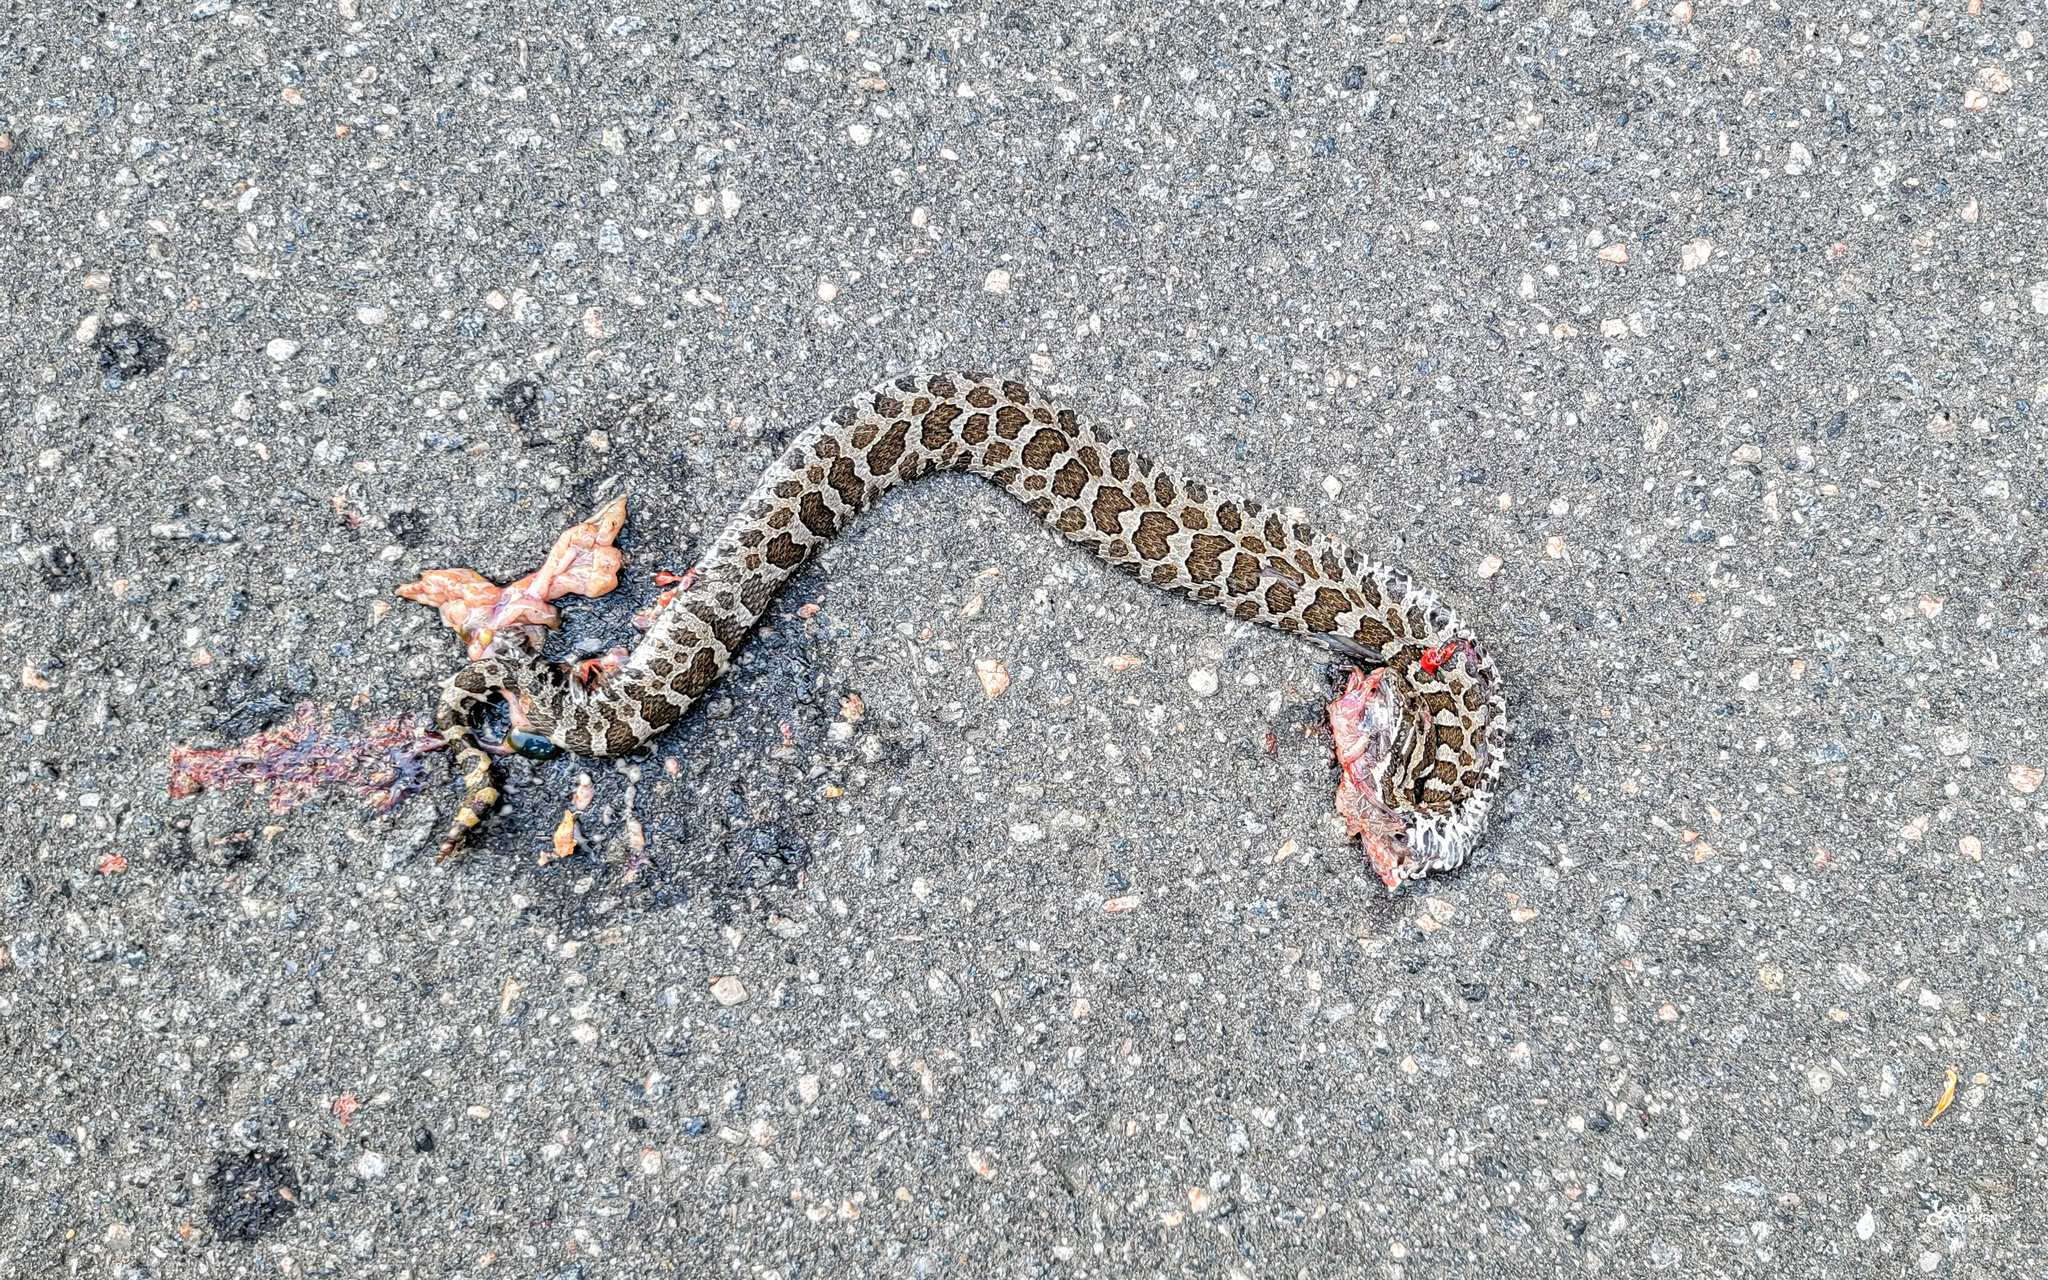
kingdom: Animalia
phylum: Chordata
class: Squamata
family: Viperidae
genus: Sistrurus
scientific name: Sistrurus catenatus
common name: Massasauga
